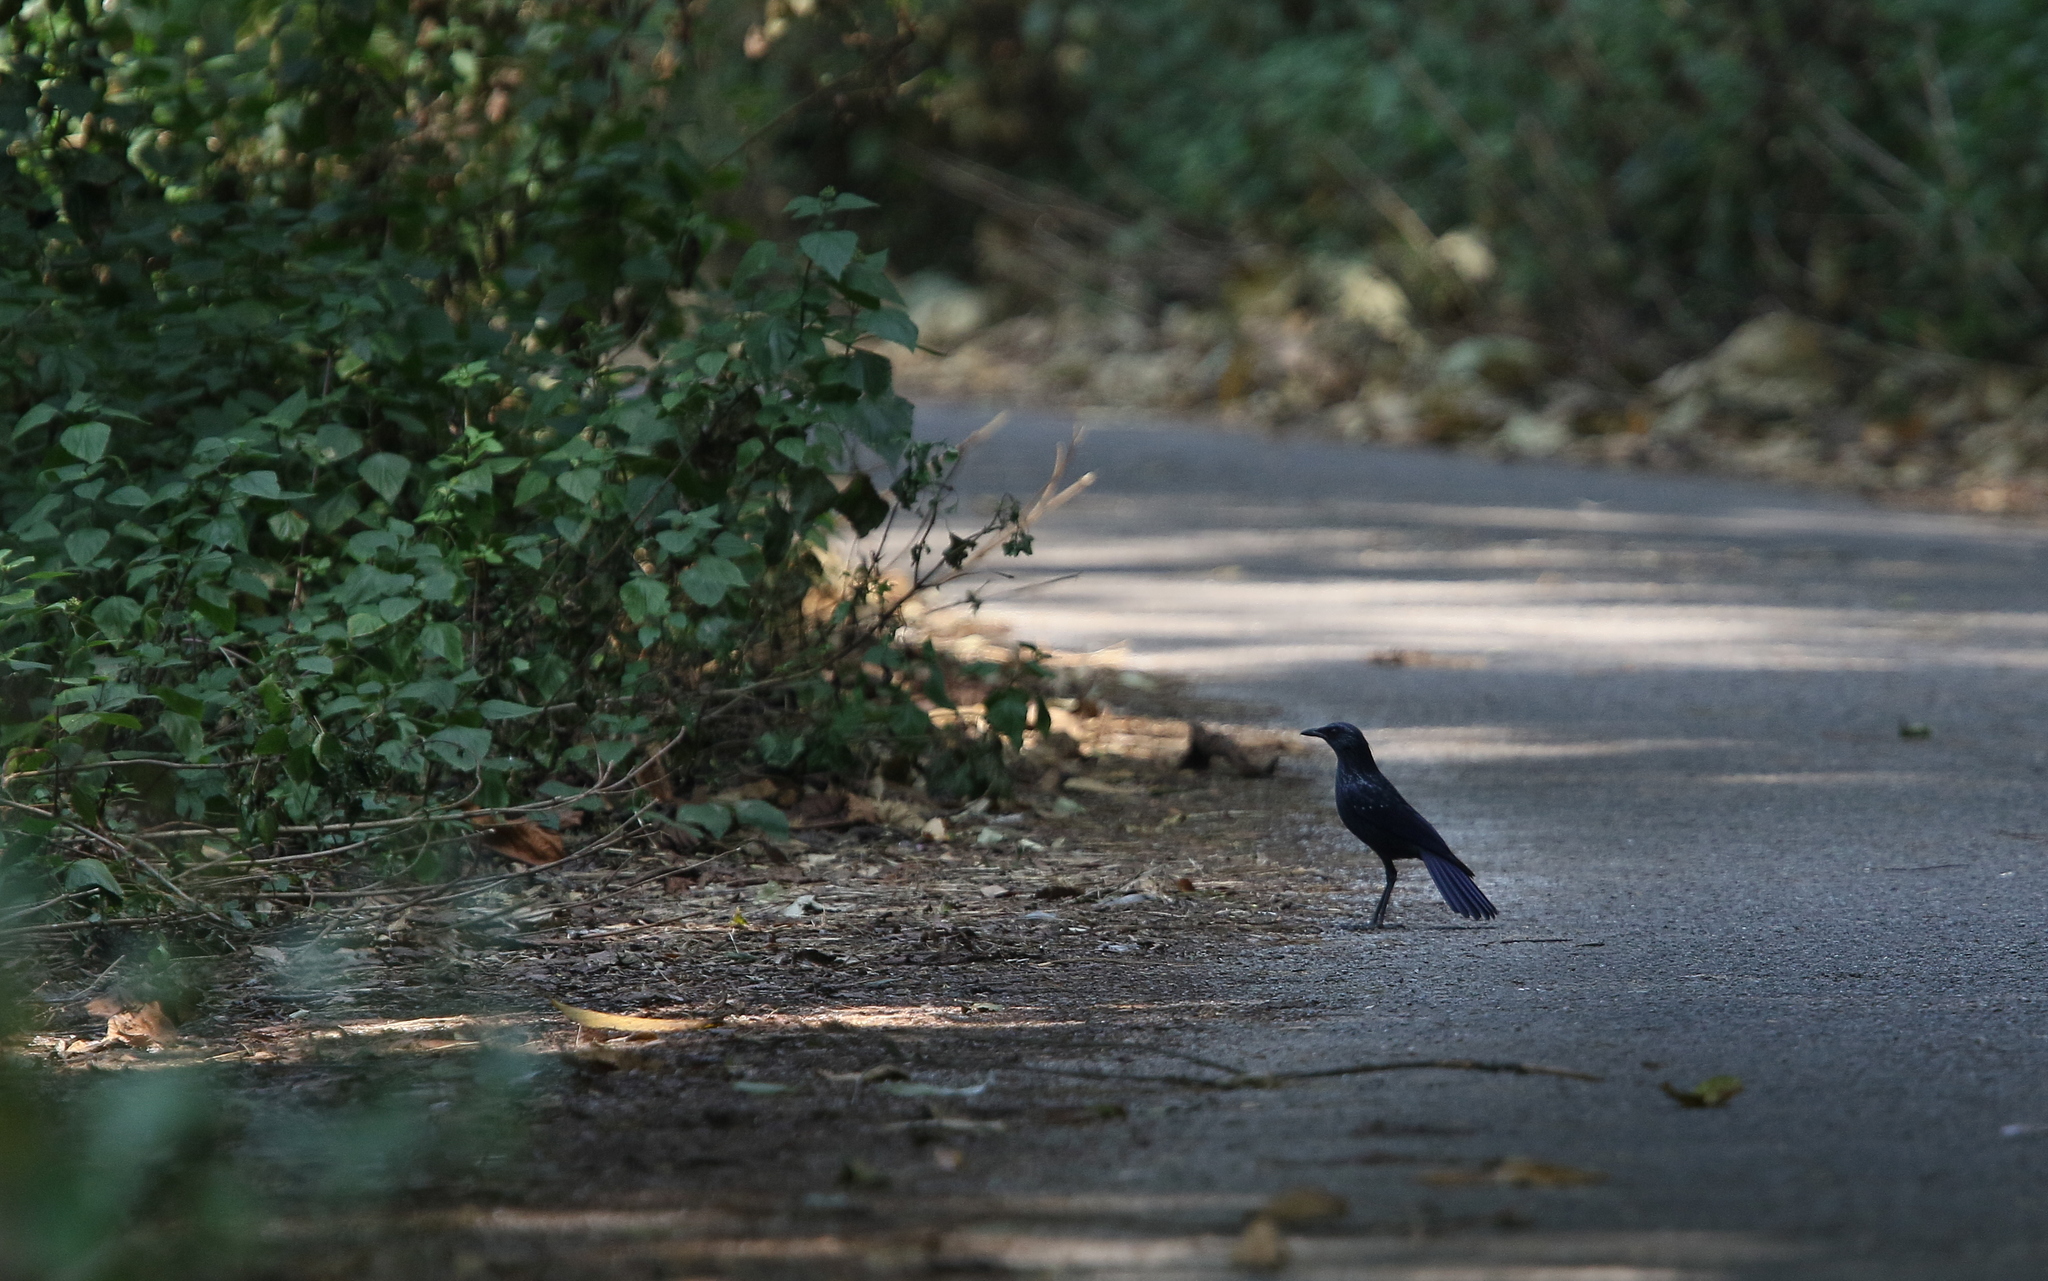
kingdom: Animalia
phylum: Chordata
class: Aves
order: Passeriformes
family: Muscicapidae
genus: Myophonus
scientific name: Myophonus caeruleus
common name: Blue whistling-thrush
